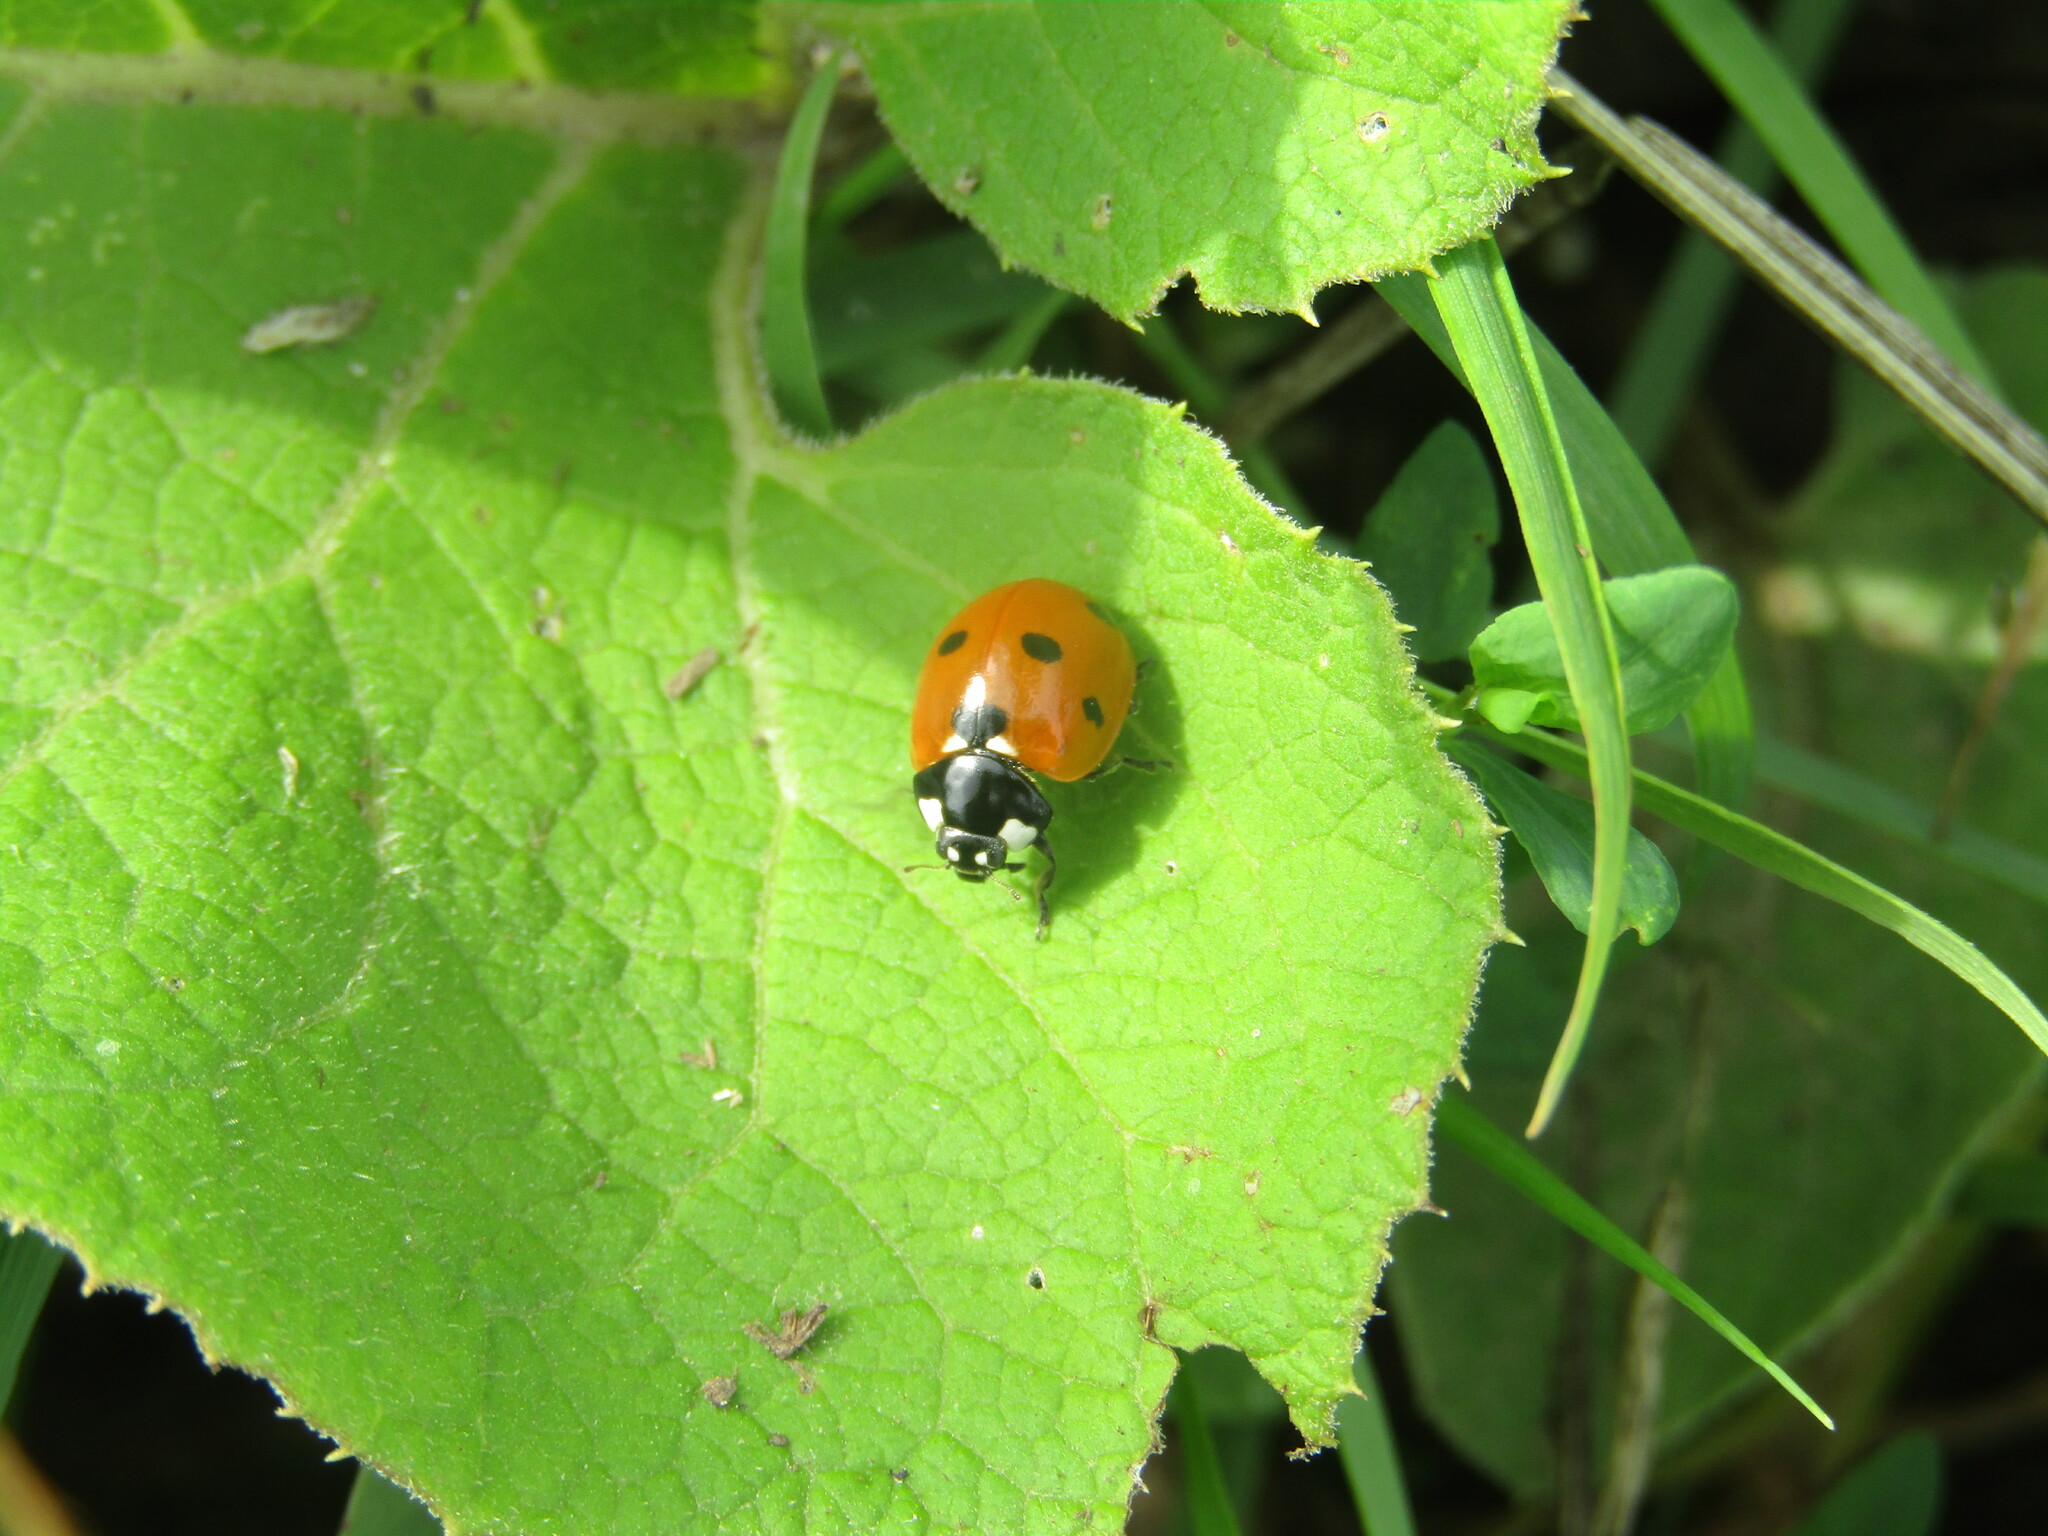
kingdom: Animalia
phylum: Arthropoda
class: Insecta
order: Coleoptera
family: Coccinellidae
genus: Coccinella
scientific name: Coccinella septempunctata
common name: Sevenspotted lady beetle
